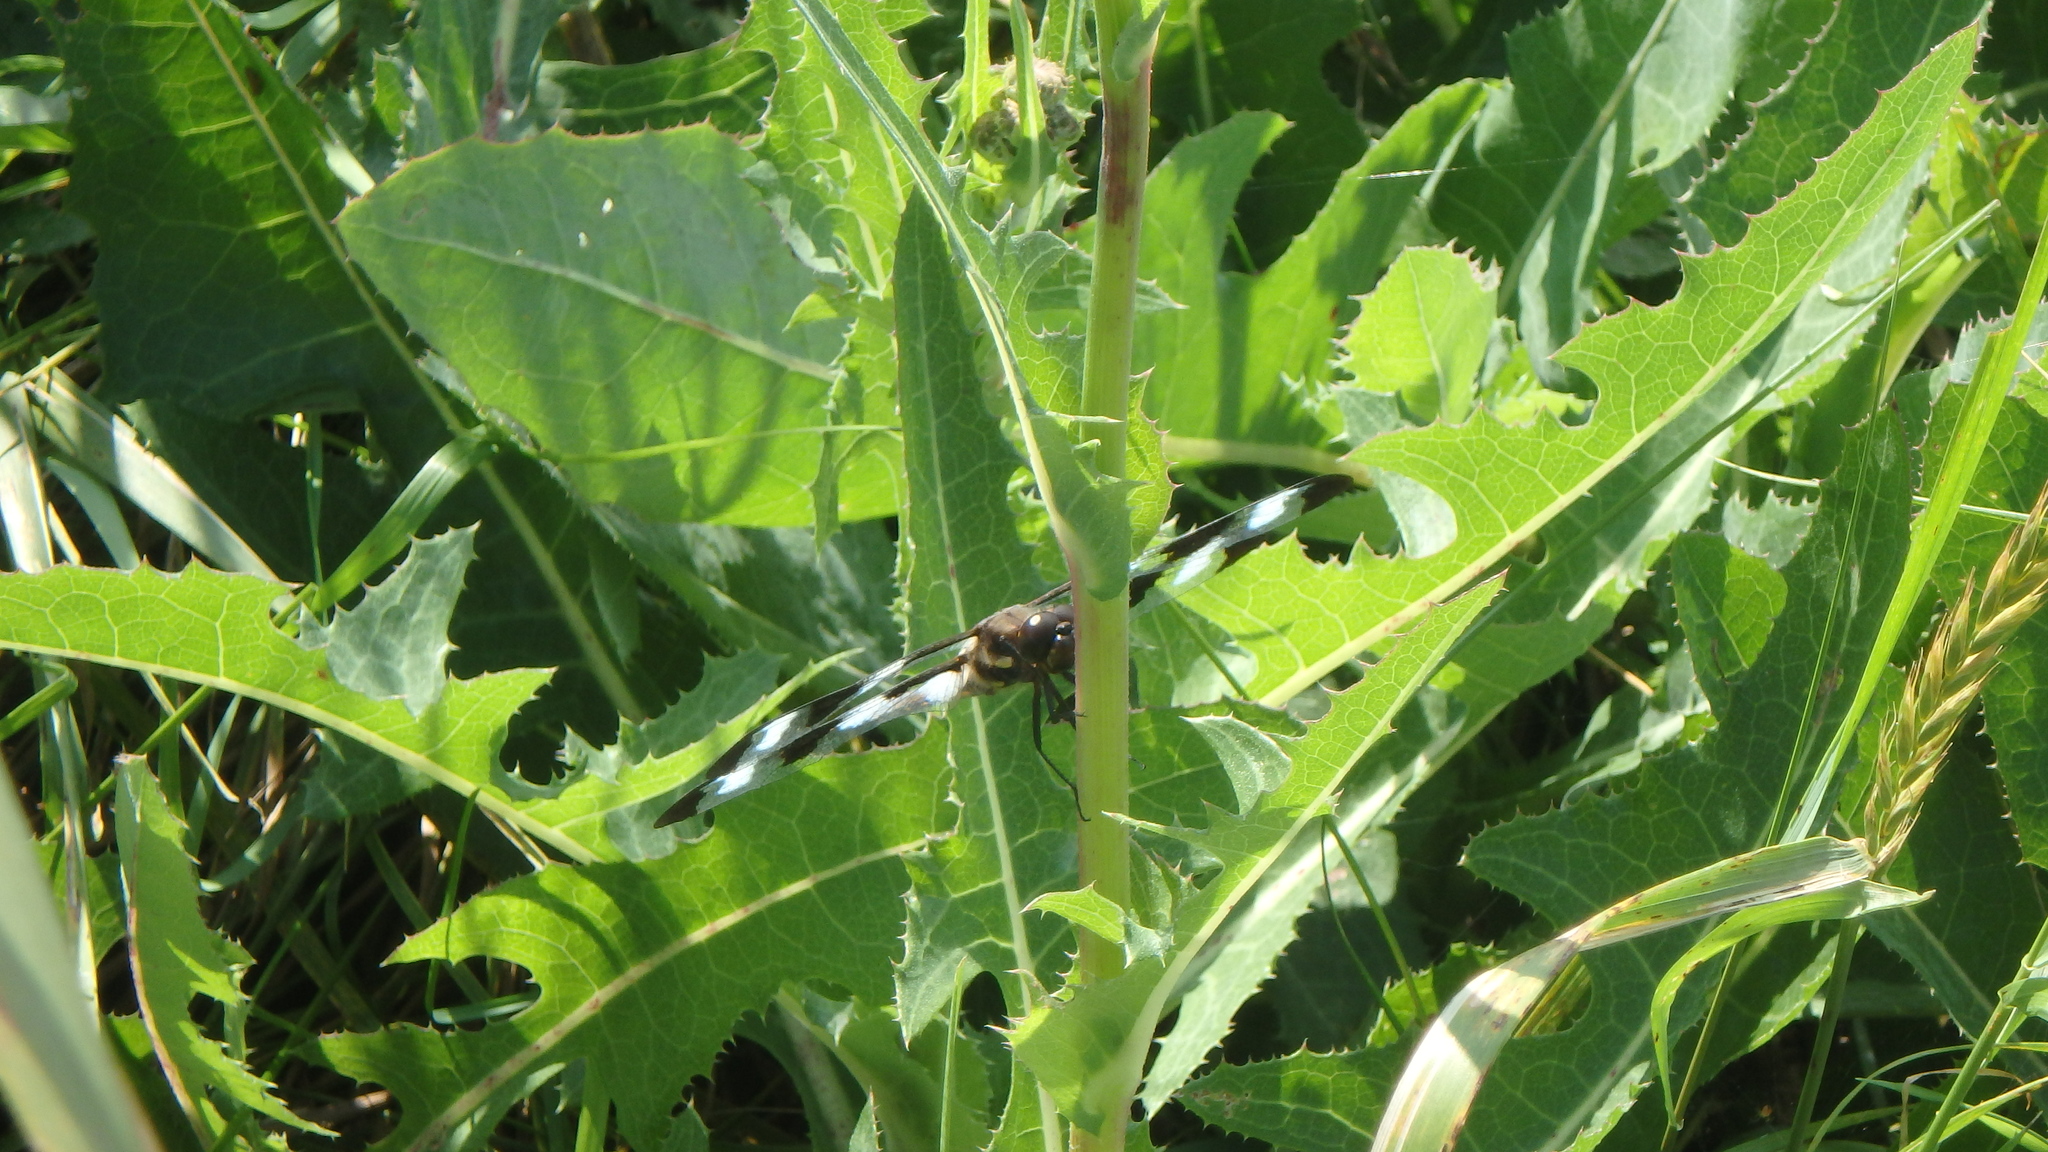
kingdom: Animalia
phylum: Arthropoda
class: Insecta
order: Odonata
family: Libellulidae
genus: Libellula
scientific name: Libellula pulchella
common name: Twelve-spotted skimmer
